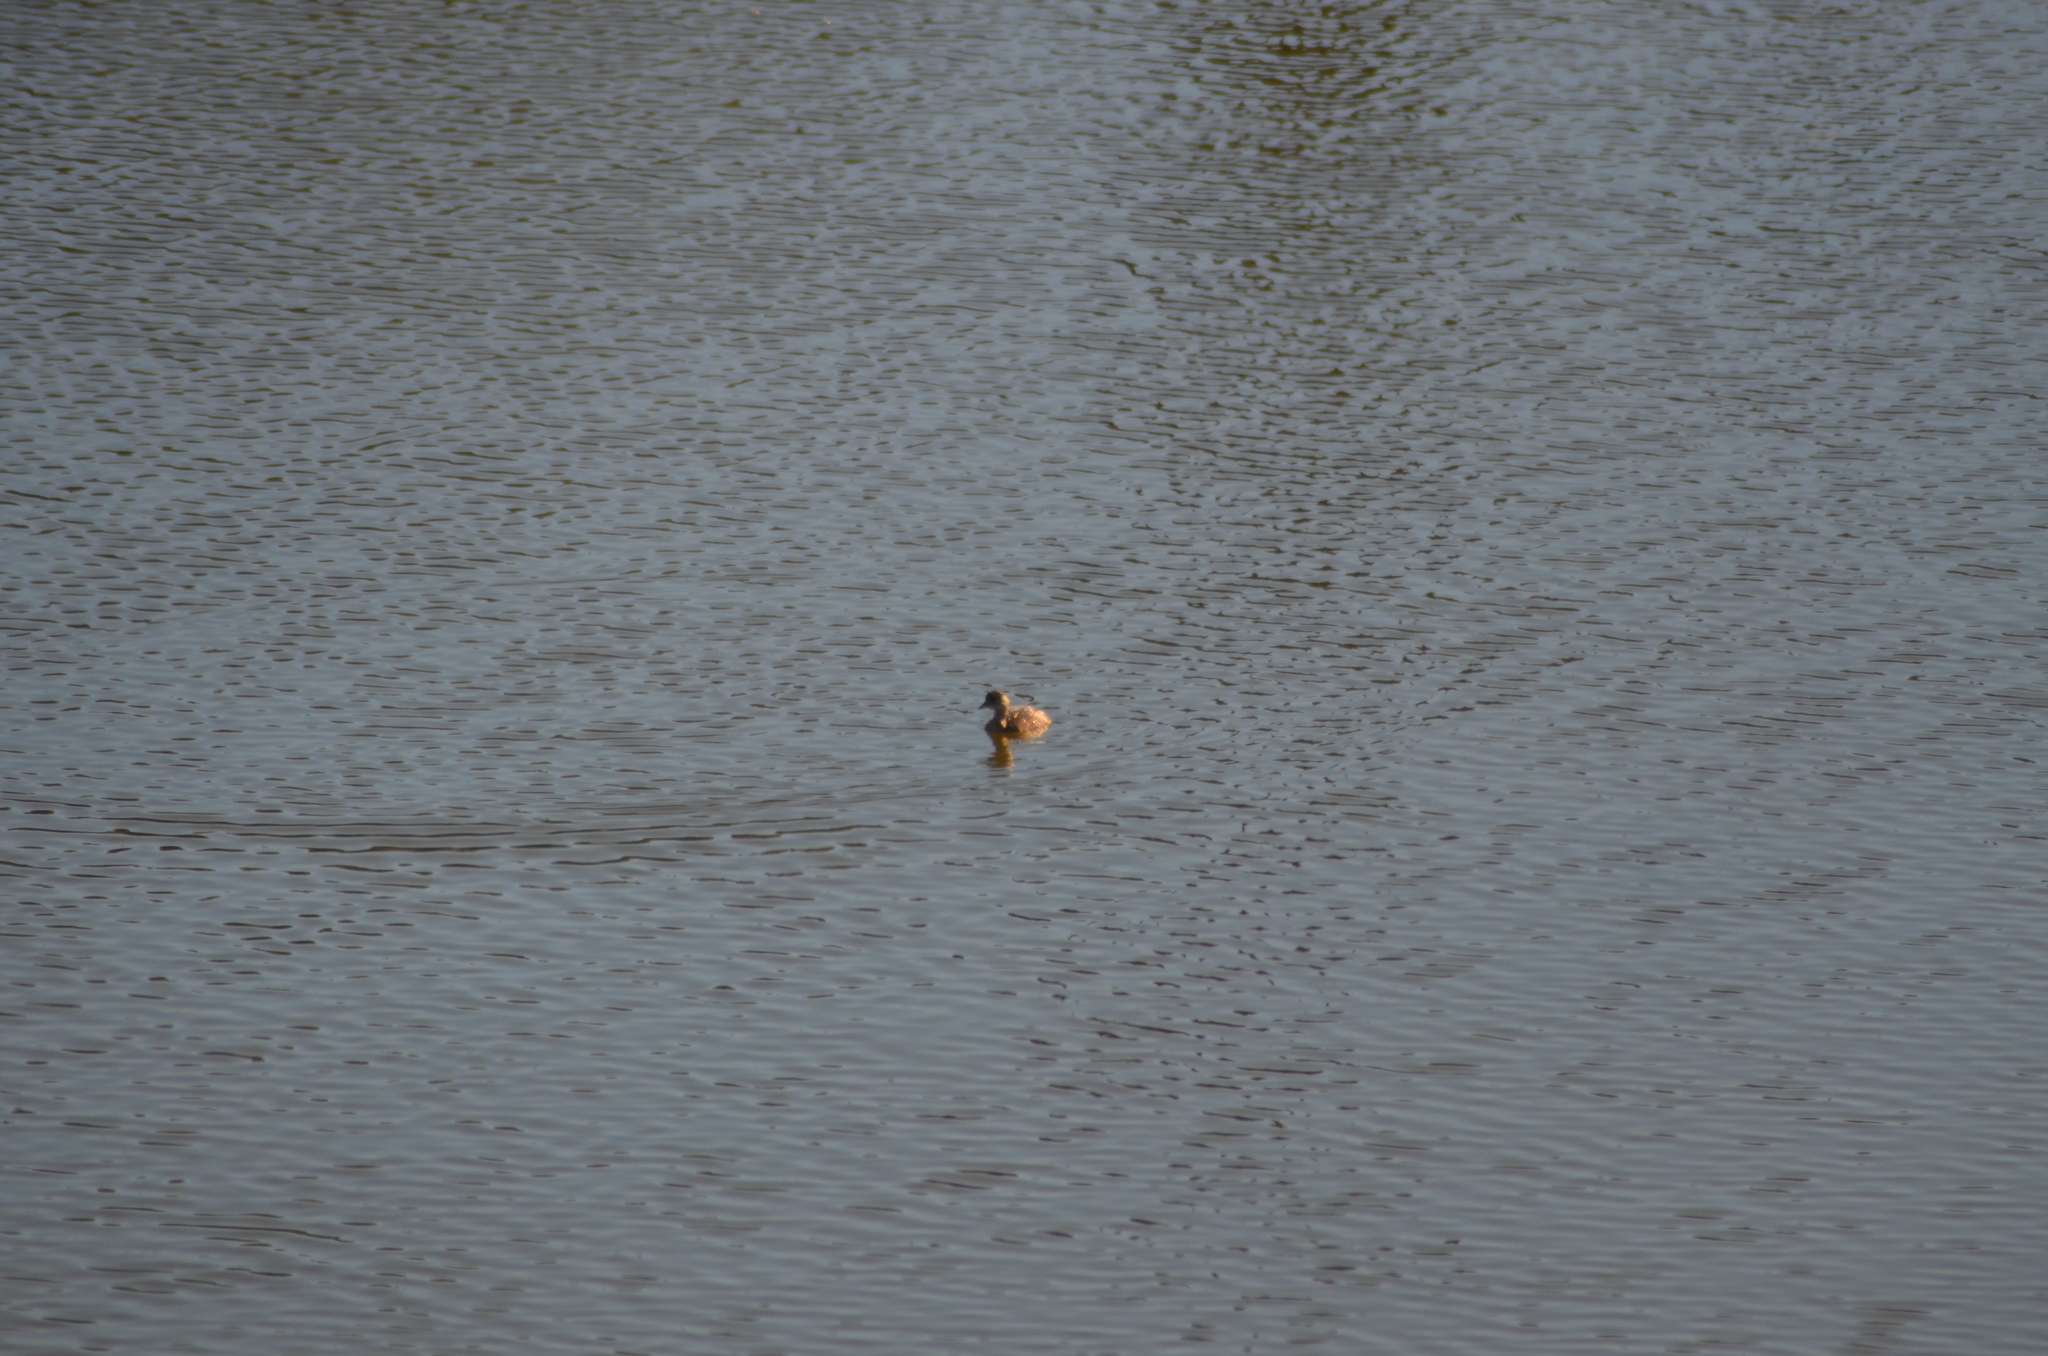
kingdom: Animalia
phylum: Chordata
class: Aves
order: Podicipediformes
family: Podicipedidae
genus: Tachybaptus
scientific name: Tachybaptus ruficollis
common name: Little grebe
